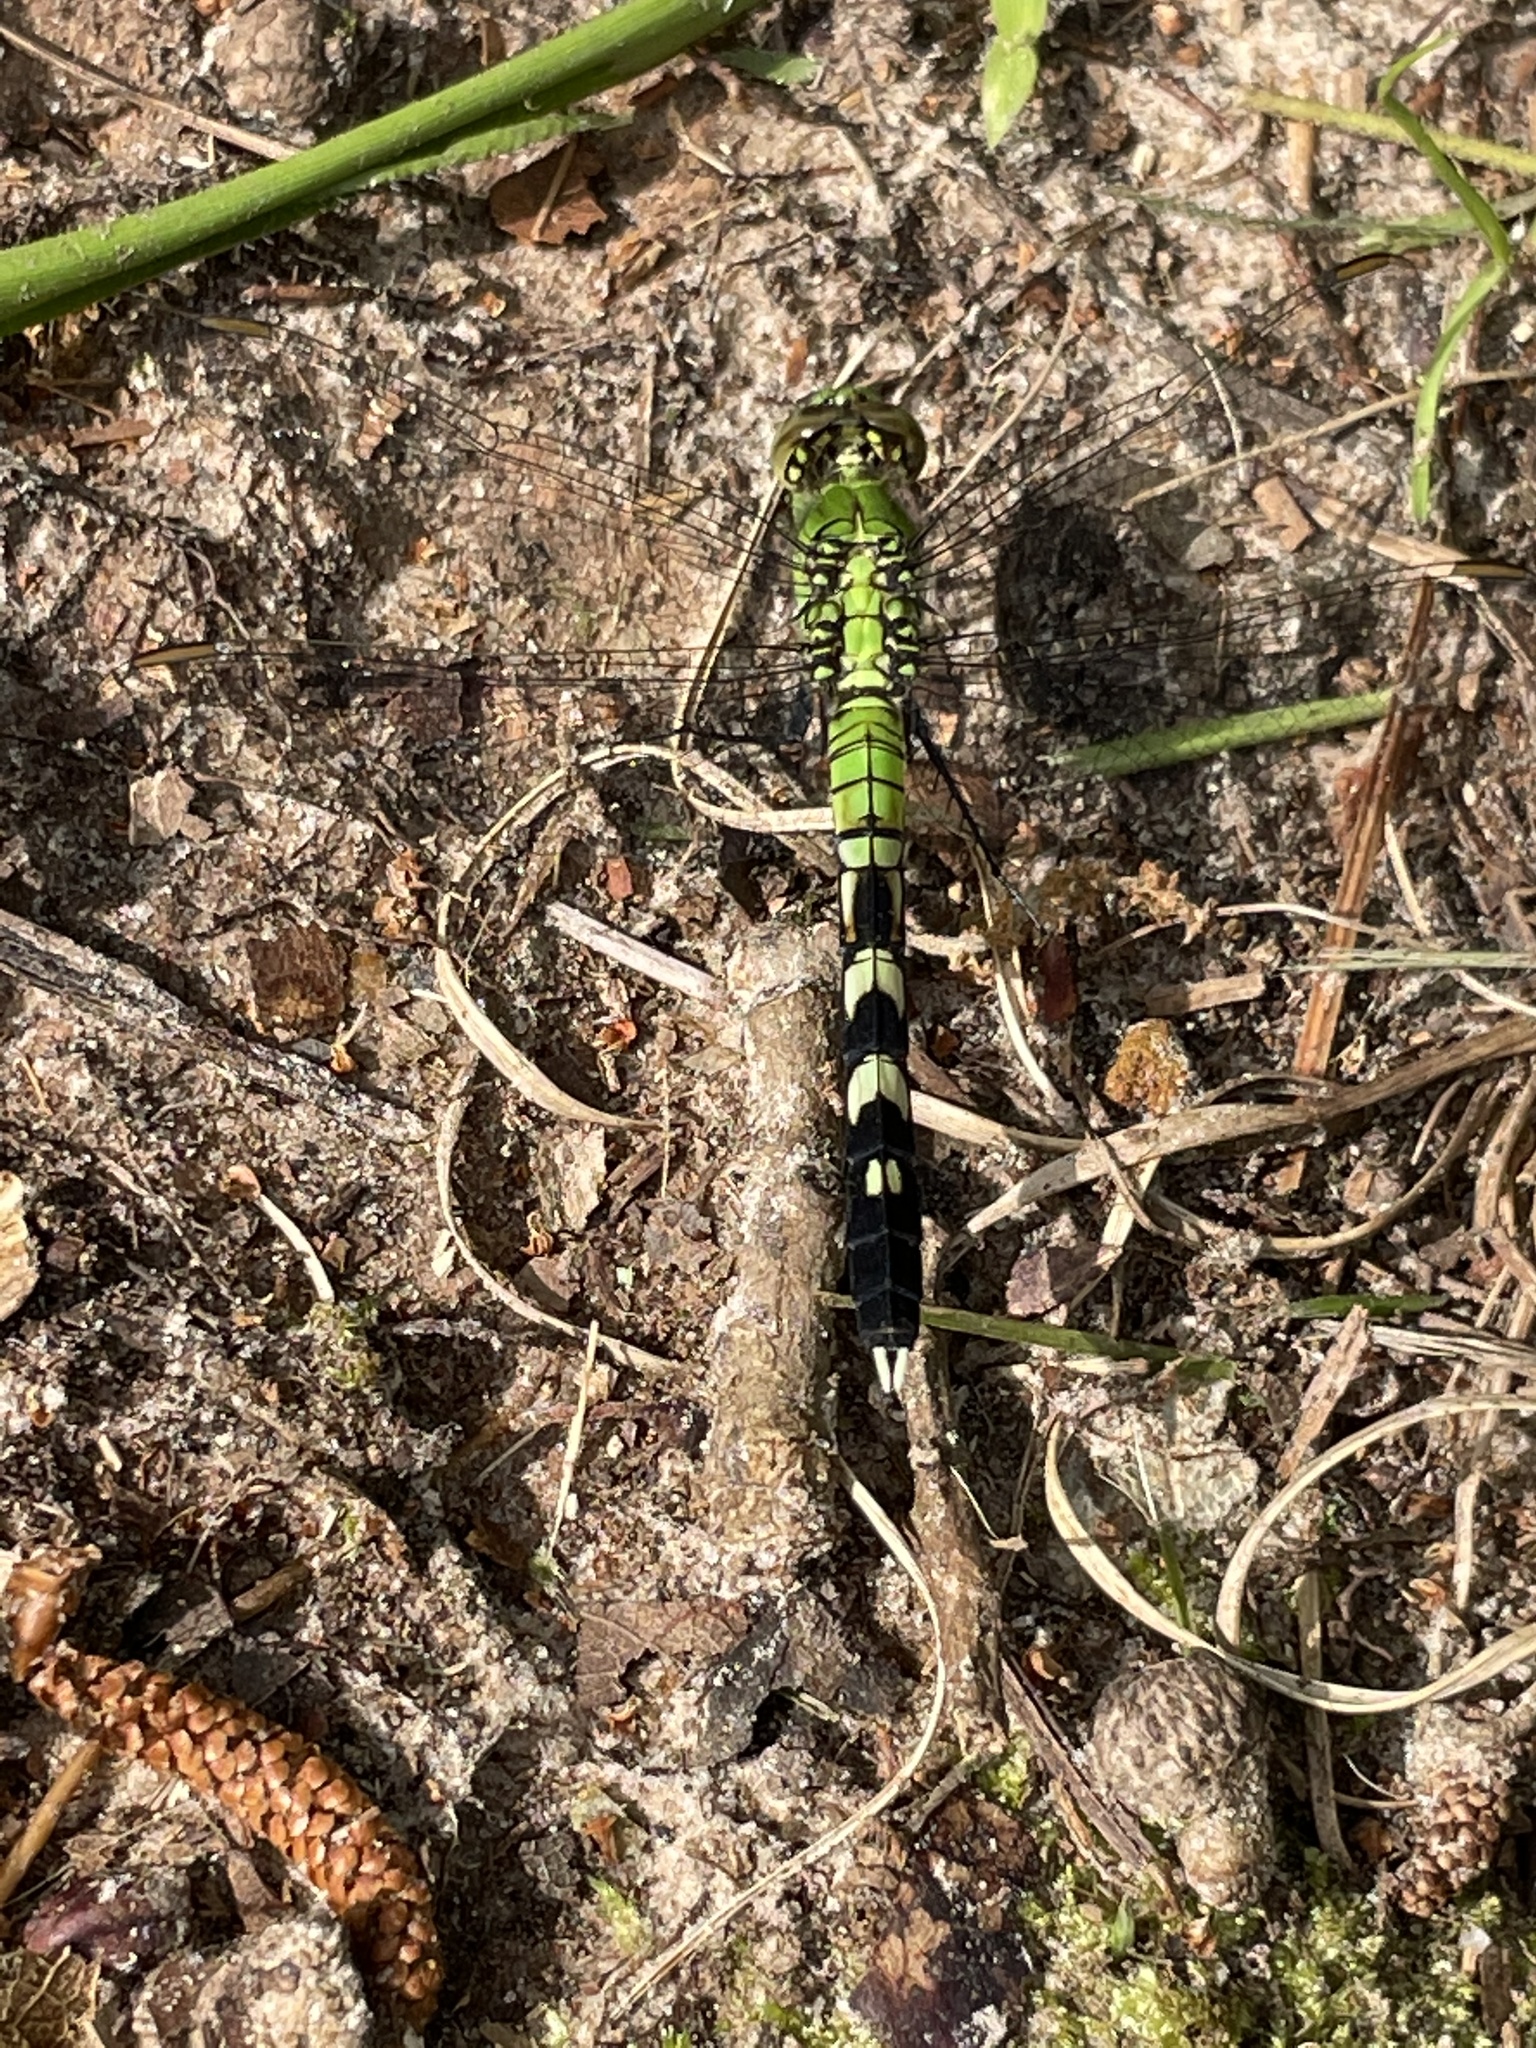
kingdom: Animalia
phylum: Arthropoda
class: Insecta
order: Odonata
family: Libellulidae
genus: Erythemis
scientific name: Erythemis simplicicollis
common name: Eastern pondhawk
